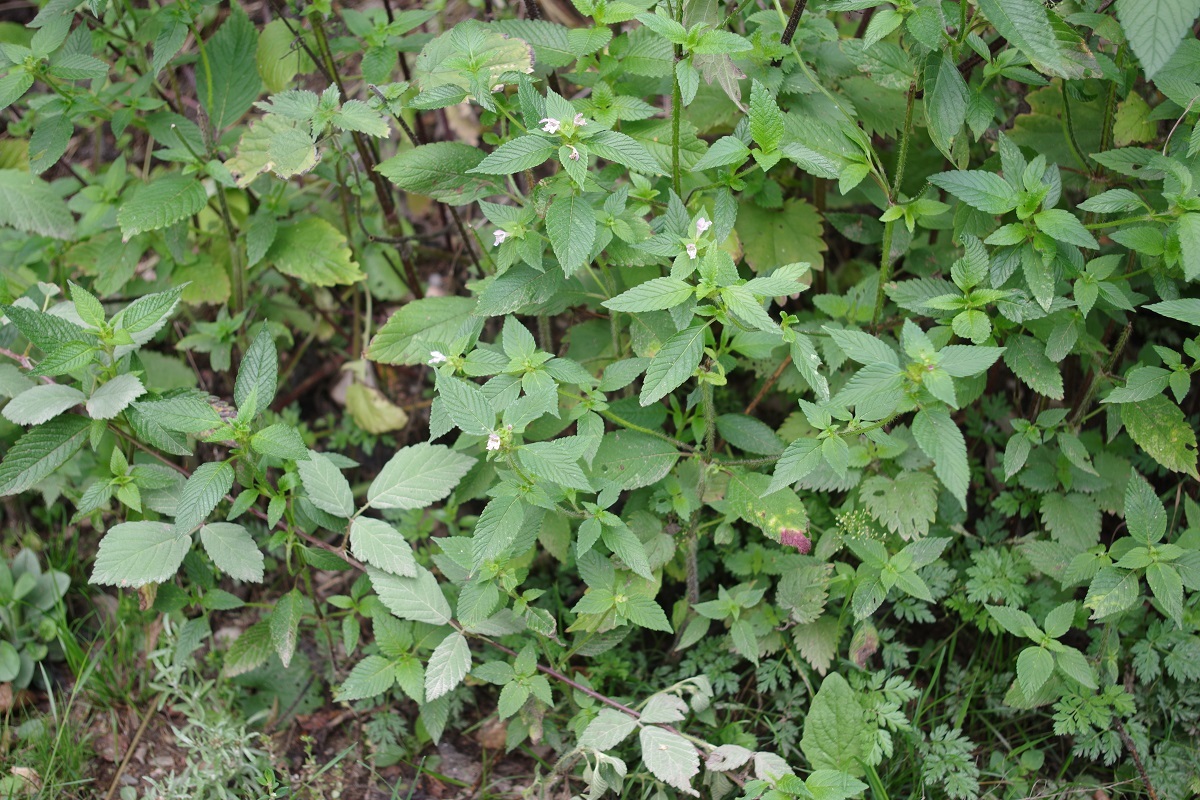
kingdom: Plantae
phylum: Tracheophyta
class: Magnoliopsida
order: Lamiales
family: Lamiaceae
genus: Galeopsis
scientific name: Galeopsis tetrahit
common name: Common hemp-nettle
